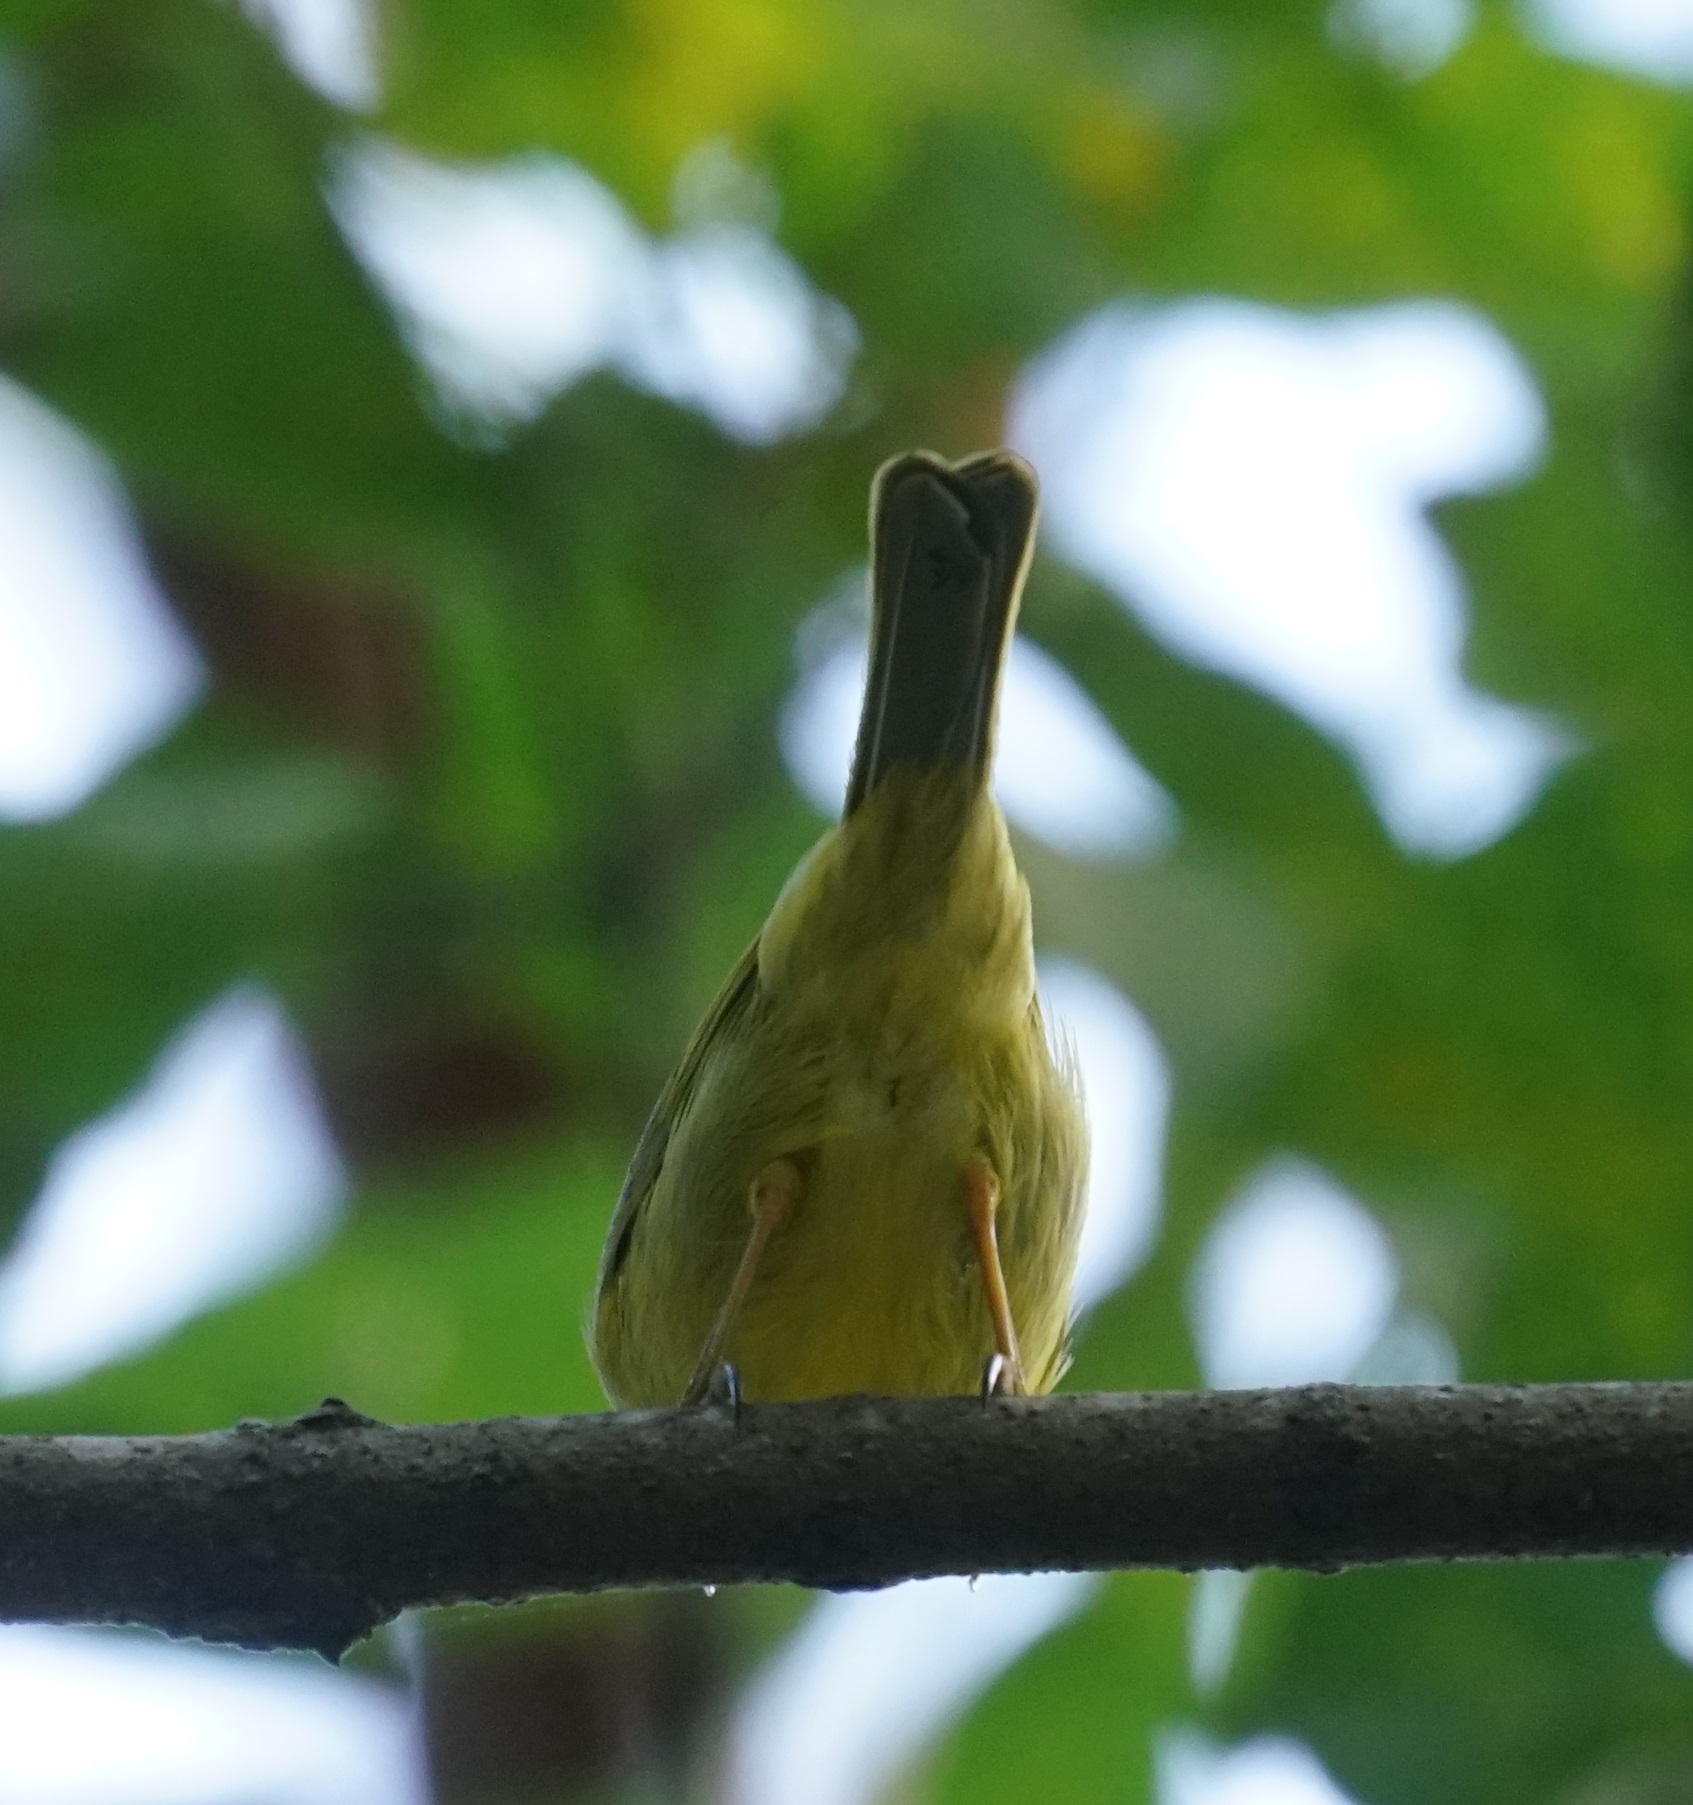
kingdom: Animalia
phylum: Chordata
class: Aves
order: Passeriformes
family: Meliphagidae
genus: Stomiopera
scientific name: Stomiopera flava
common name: Yellow honeyeater
